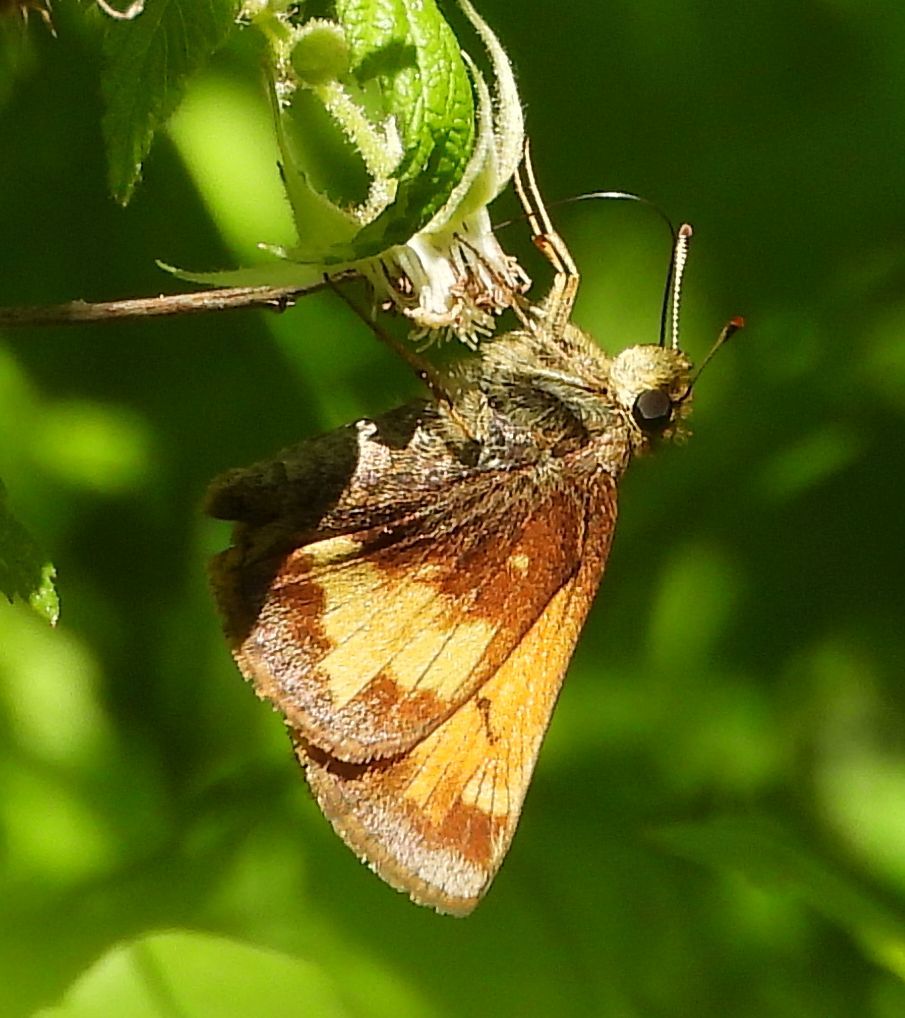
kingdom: Animalia
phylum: Arthropoda
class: Insecta
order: Lepidoptera
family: Hesperiidae
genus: Lon
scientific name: Lon hobomok
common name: Hobomok skipper
